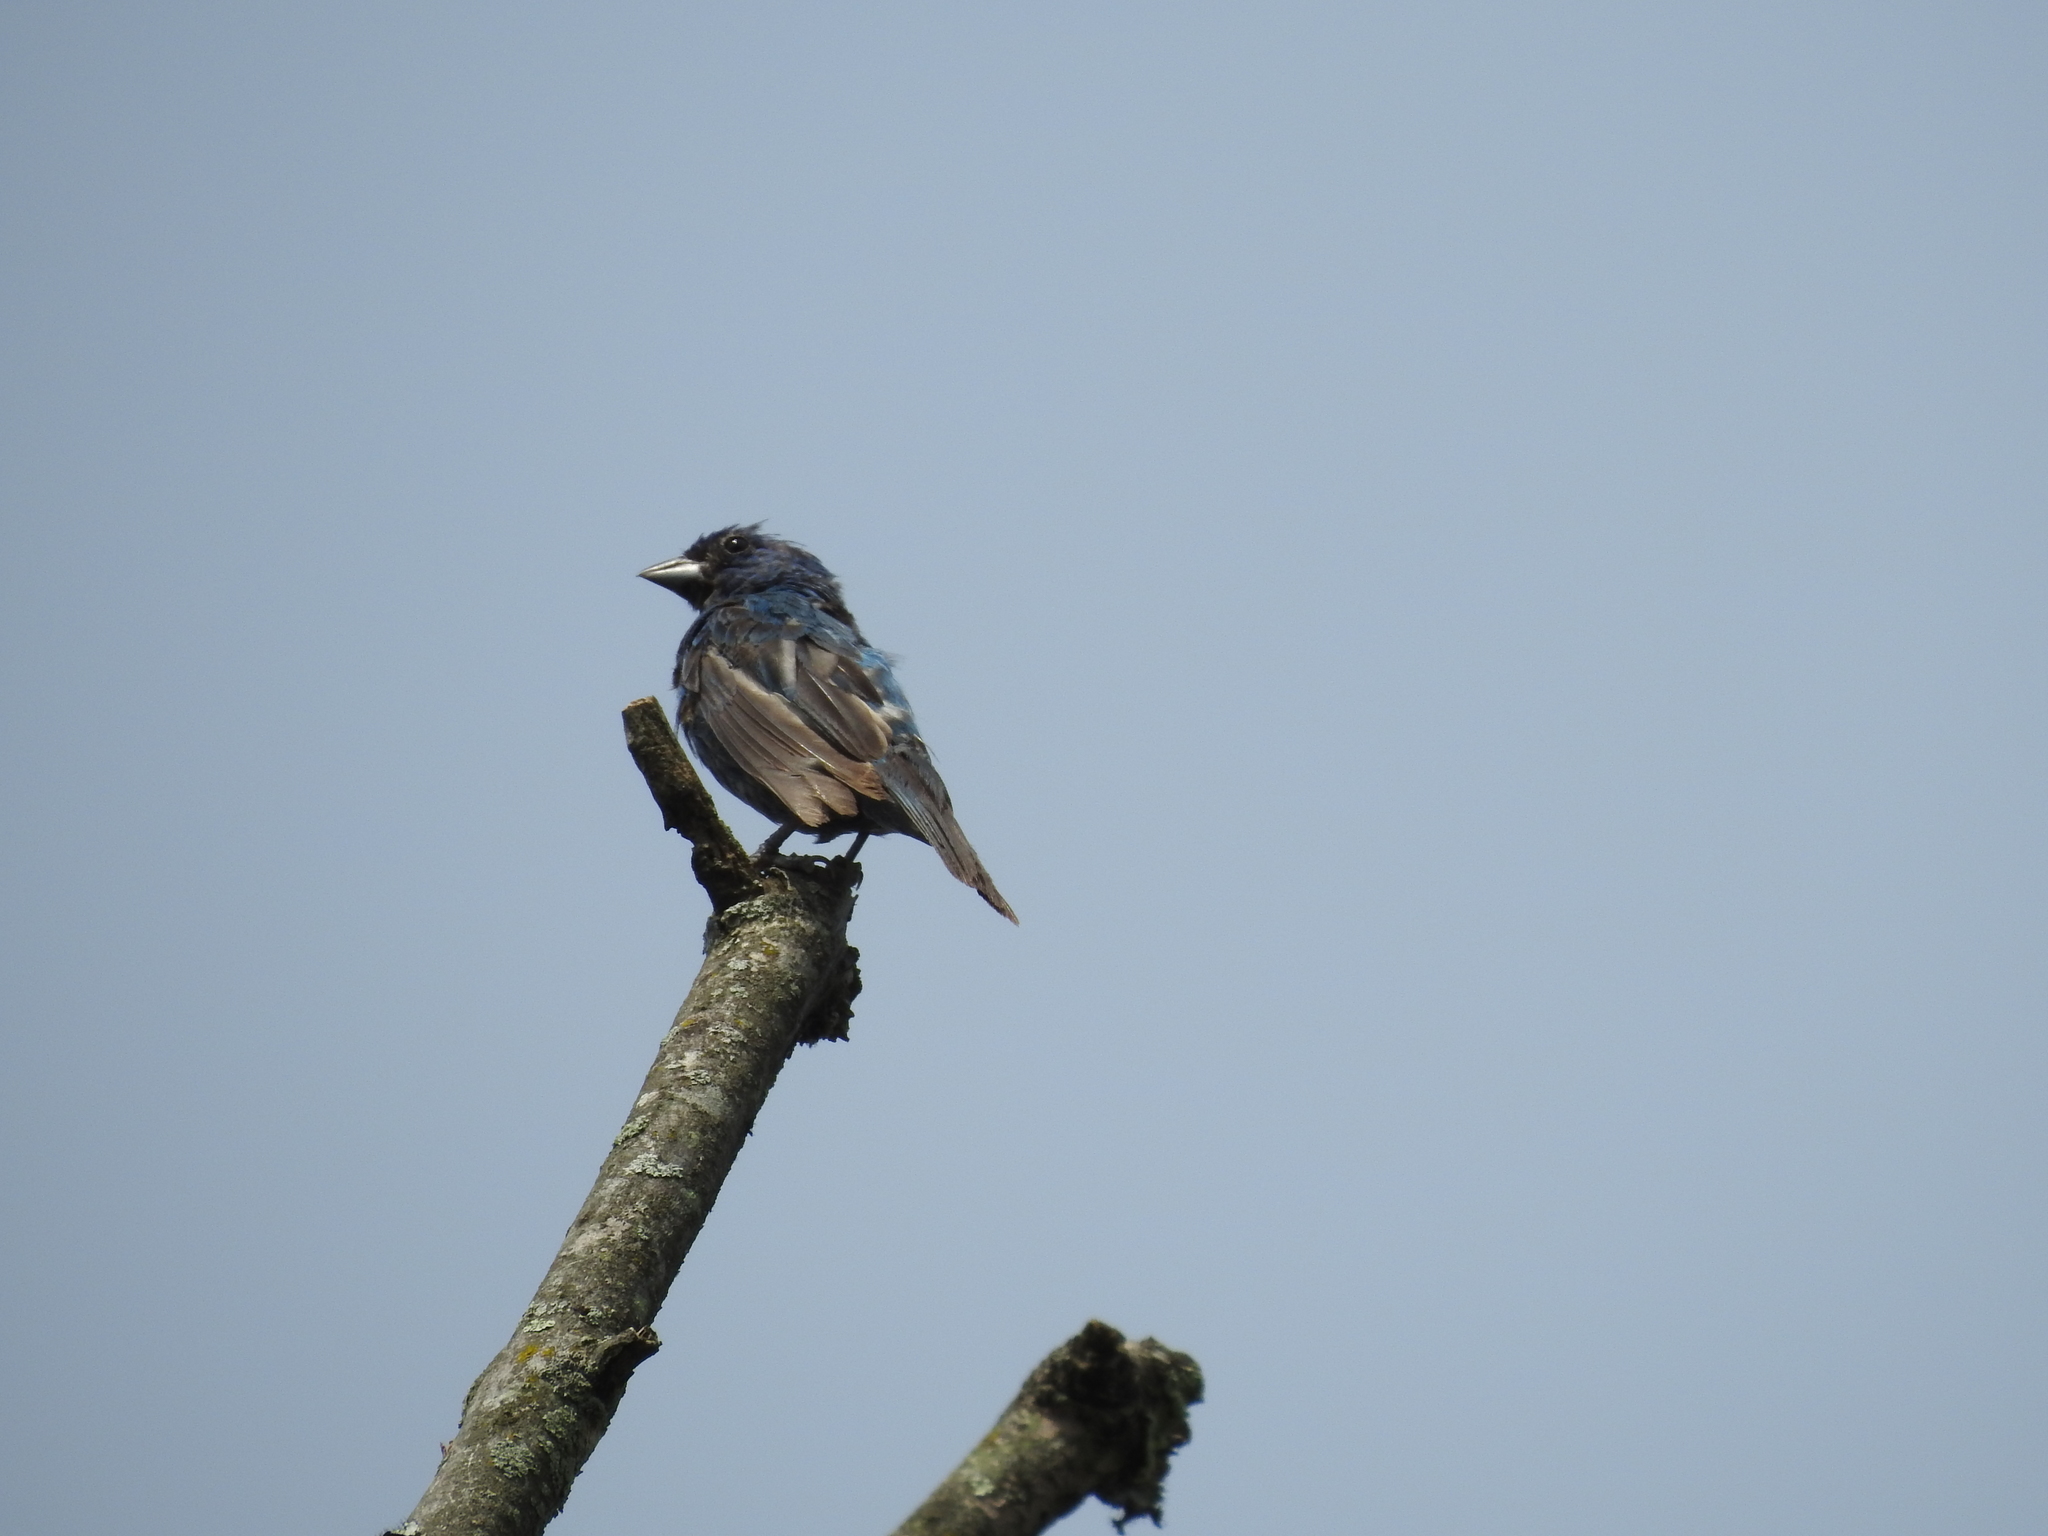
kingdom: Animalia
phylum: Chordata
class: Aves
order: Passeriformes
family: Cardinalidae
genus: Passerina
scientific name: Passerina cyanea
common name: Indigo bunting
